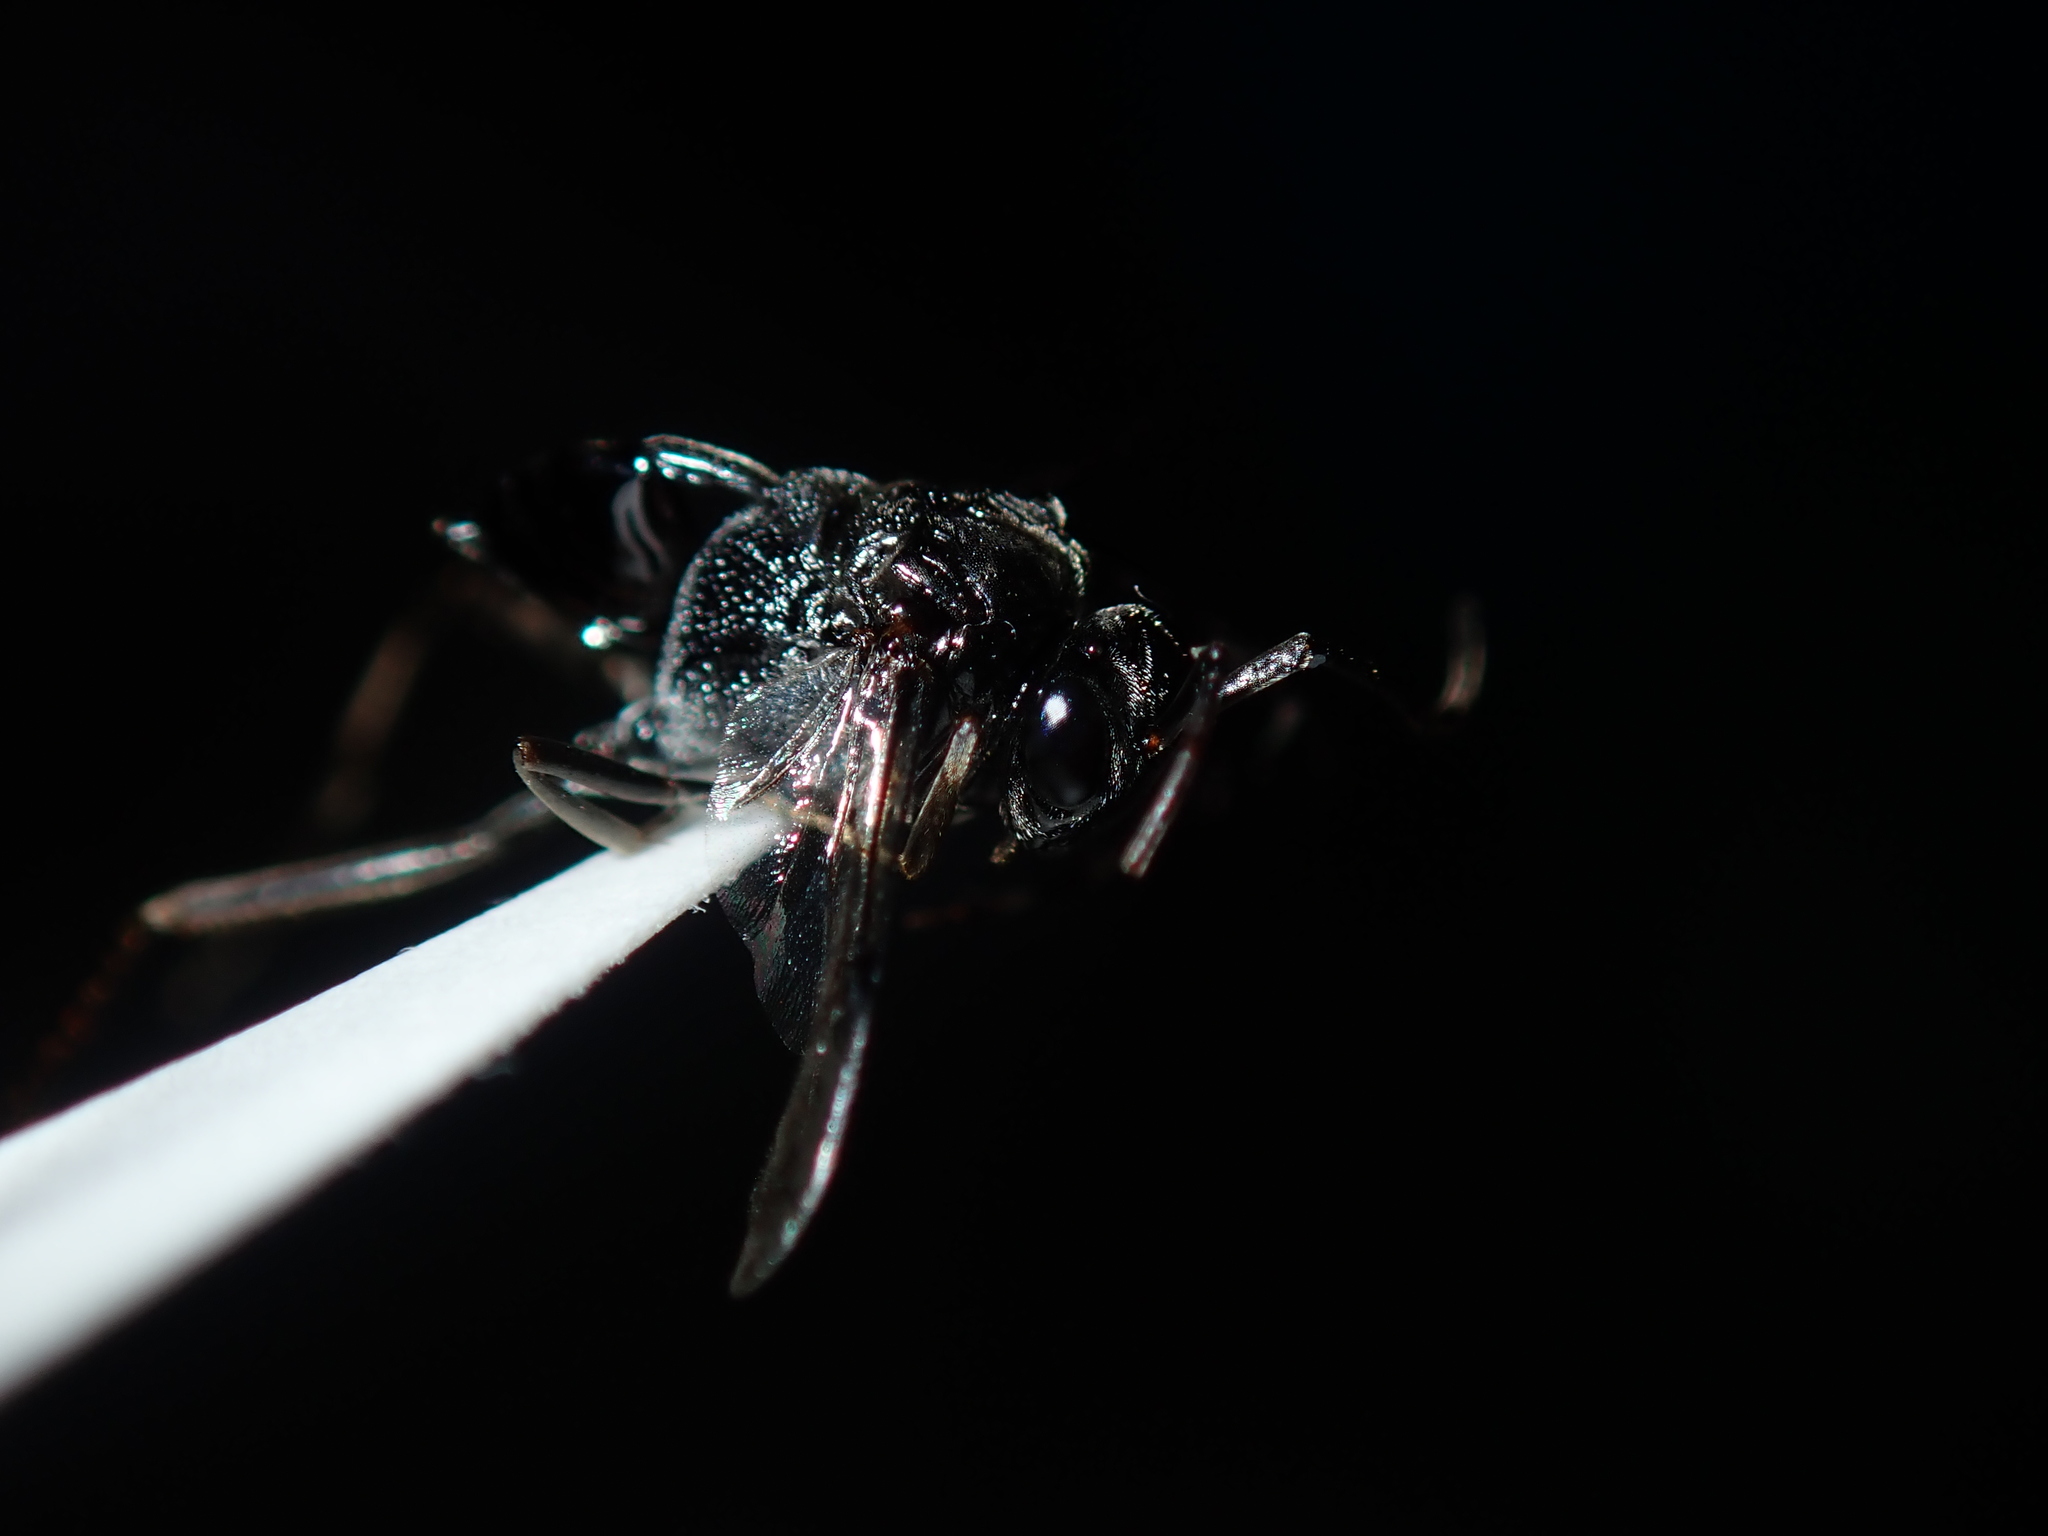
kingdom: Animalia
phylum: Arthropoda
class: Insecta
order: Hymenoptera
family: Evaniidae
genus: Evania
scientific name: Evania appendigaster
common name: Ensign wasp
